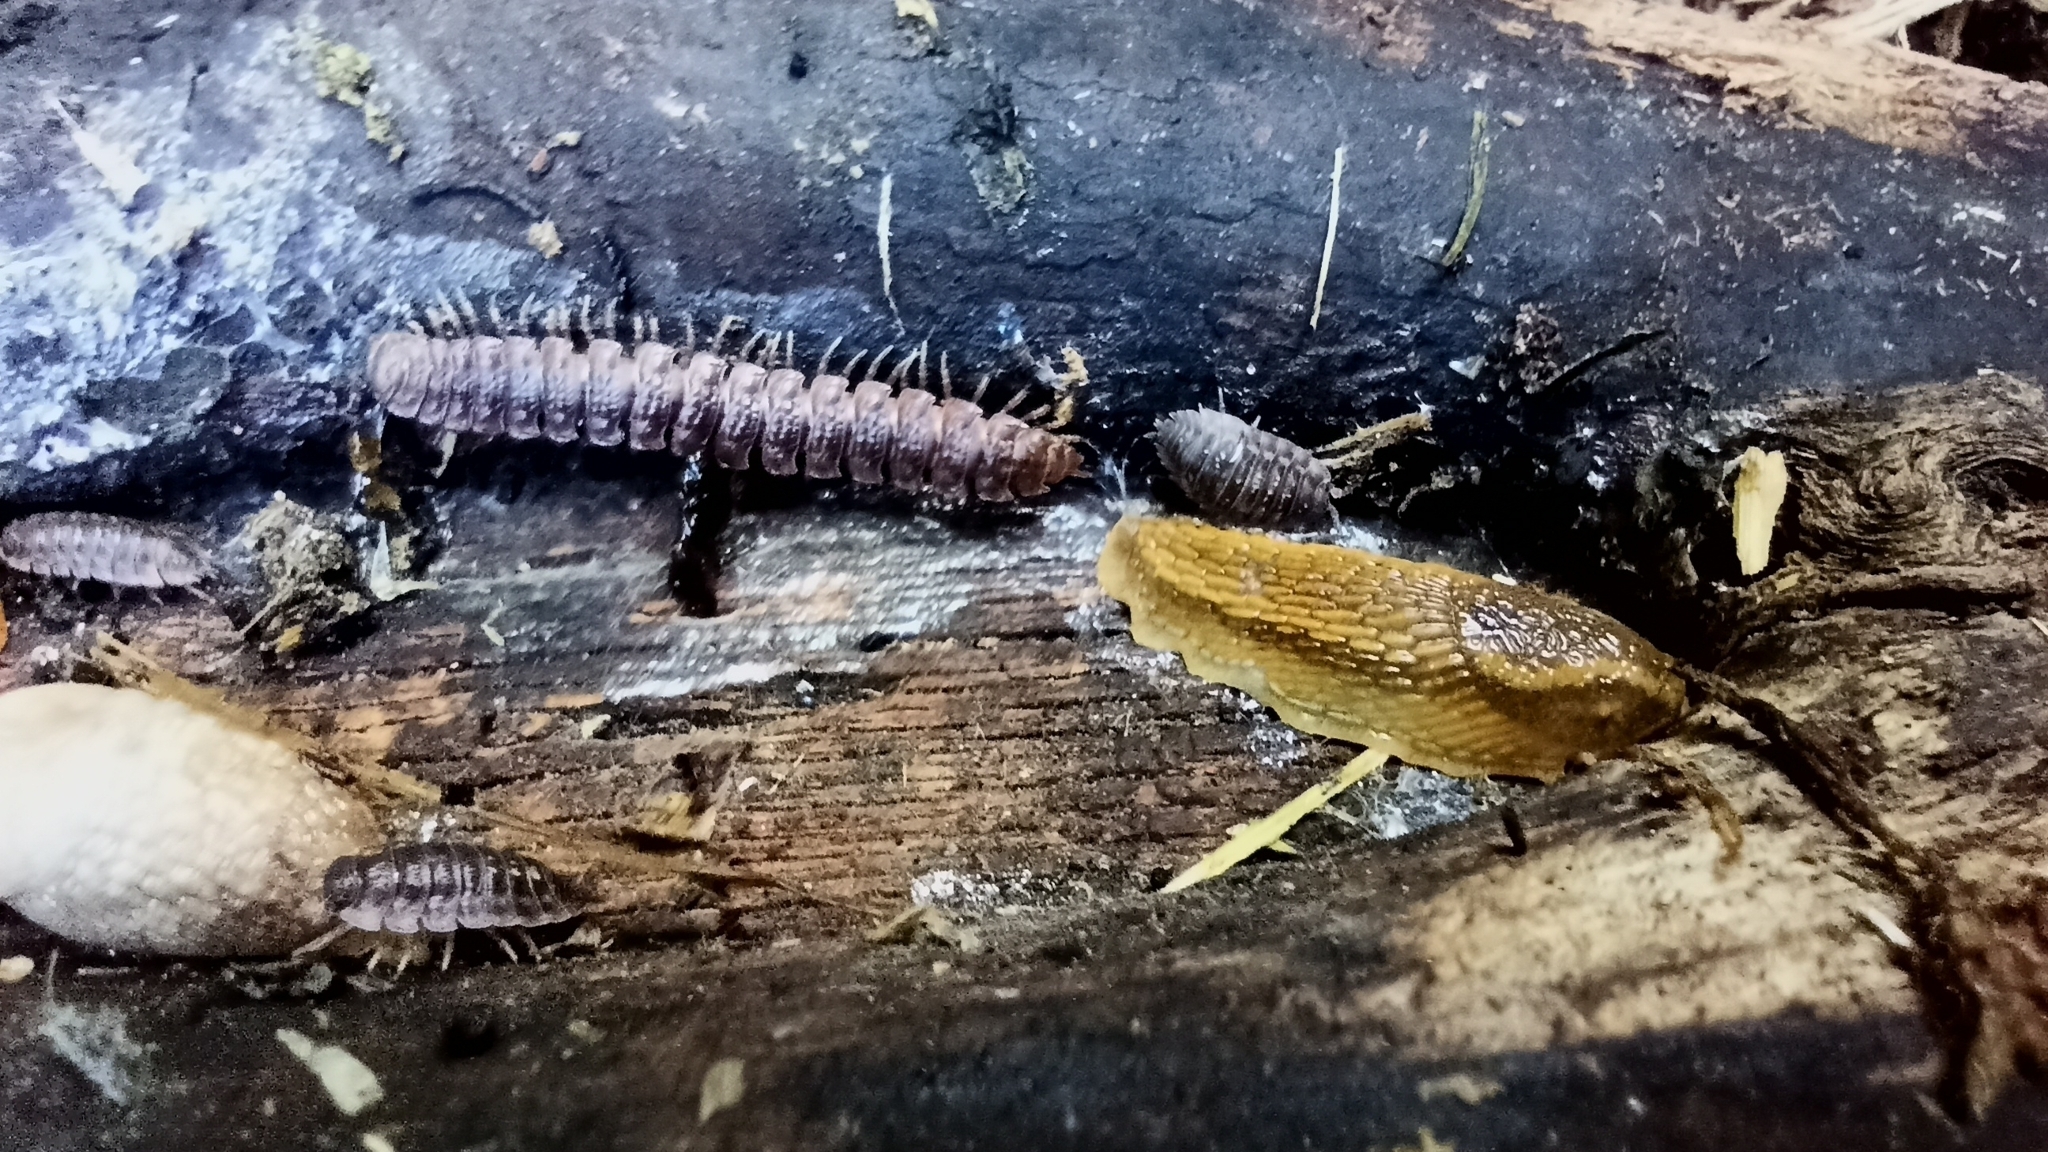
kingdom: Animalia
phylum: Arthropoda
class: Malacostraca
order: Isopoda
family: Oniscidae
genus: Oniscus
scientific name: Oniscus asellus
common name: Common shiny woodlouse
